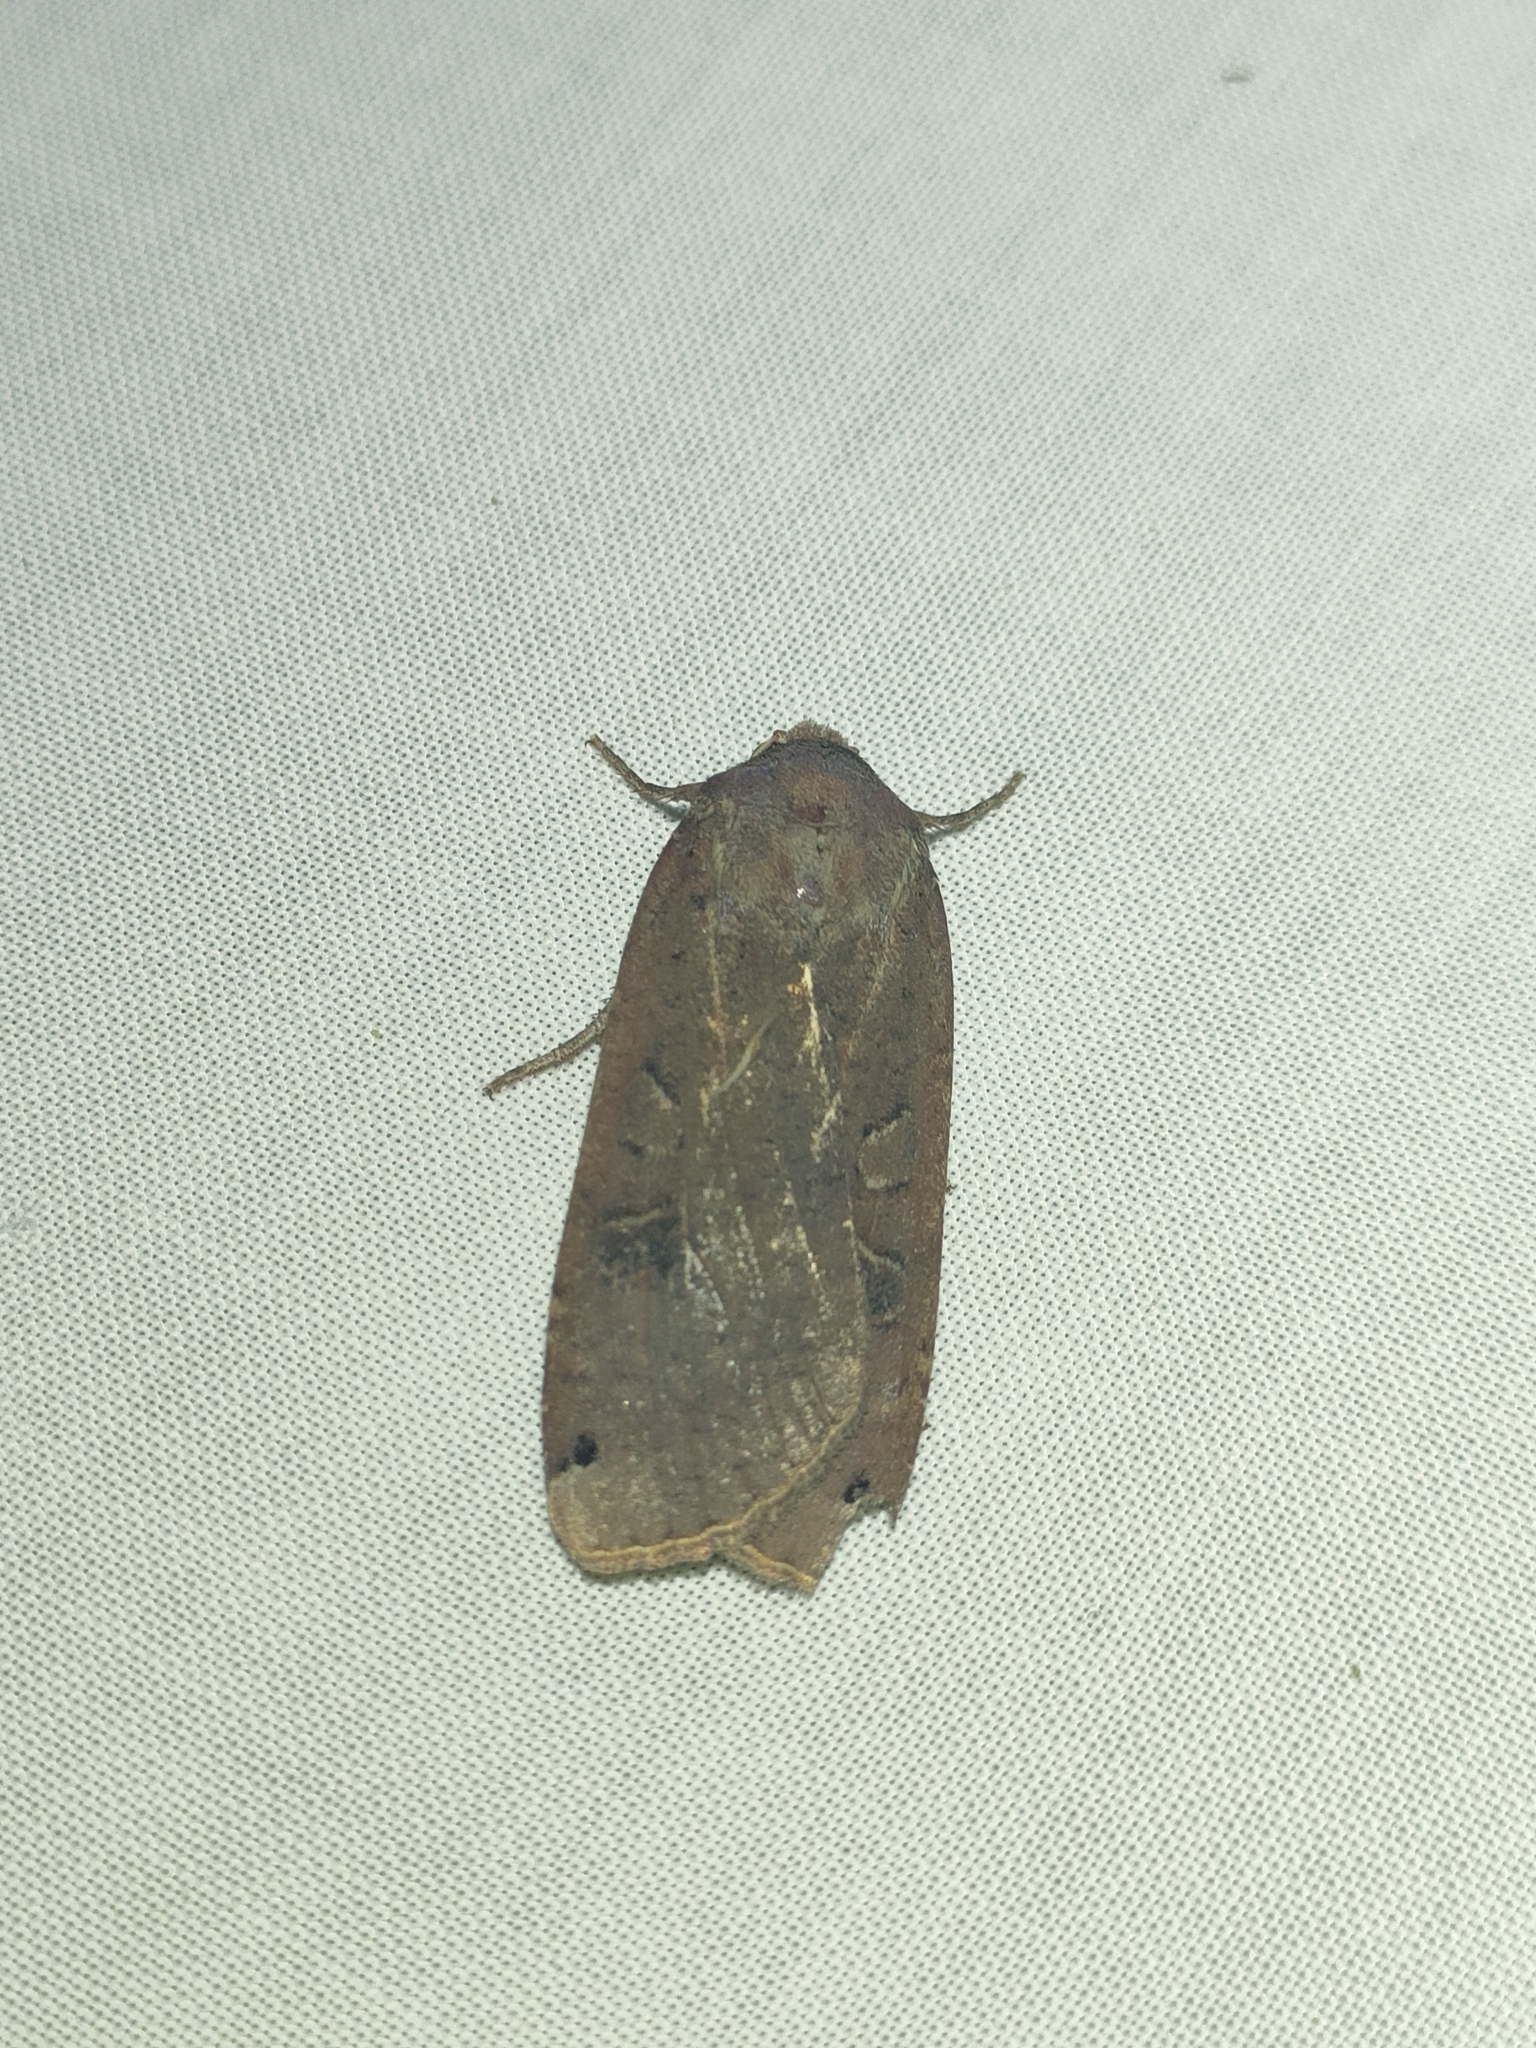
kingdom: Animalia
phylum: Arthropoda
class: Insecta
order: Lepidoptera
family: Noctuidae
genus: Noctua
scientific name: Noctua pronuba
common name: Large yellow underwing
